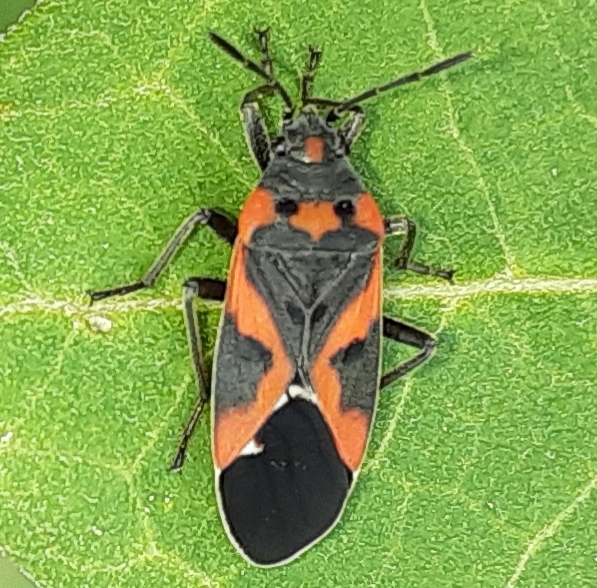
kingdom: Animalia
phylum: Arthropoda
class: Insecta
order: Hemiptera
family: Lygaeidae
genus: Lygaeus
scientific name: Lygaeus kalmii
